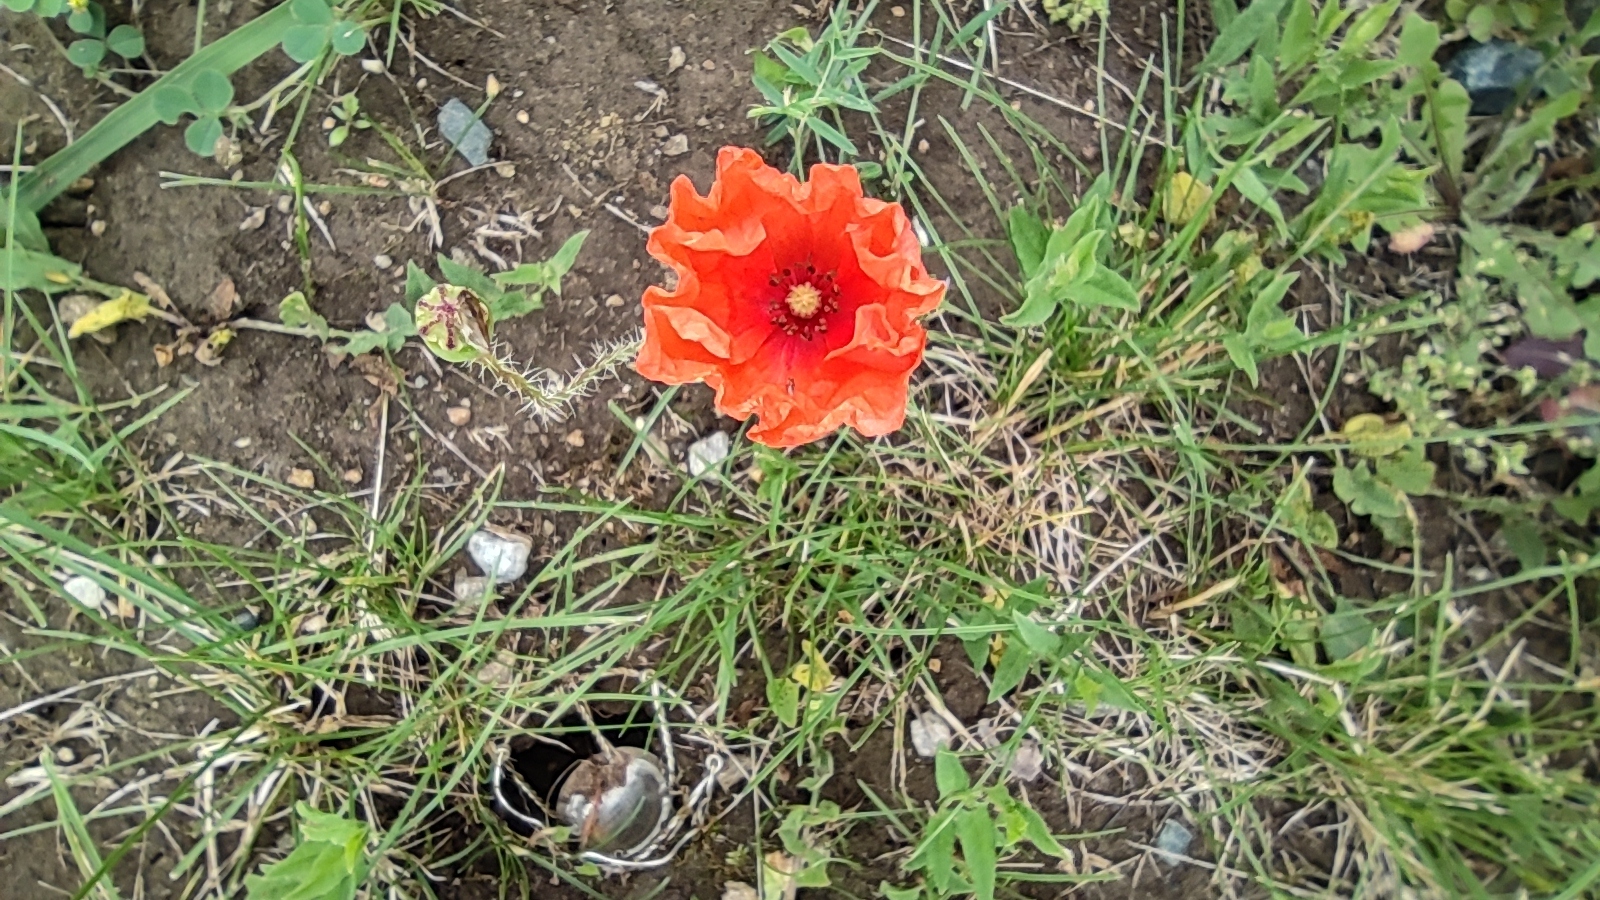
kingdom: Plantae
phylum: Tracheophyta
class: Magnoliopsida
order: Ranunculales
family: Papaveraceae
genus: Papaver
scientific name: Papaver rhoeas
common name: Corn poppy
